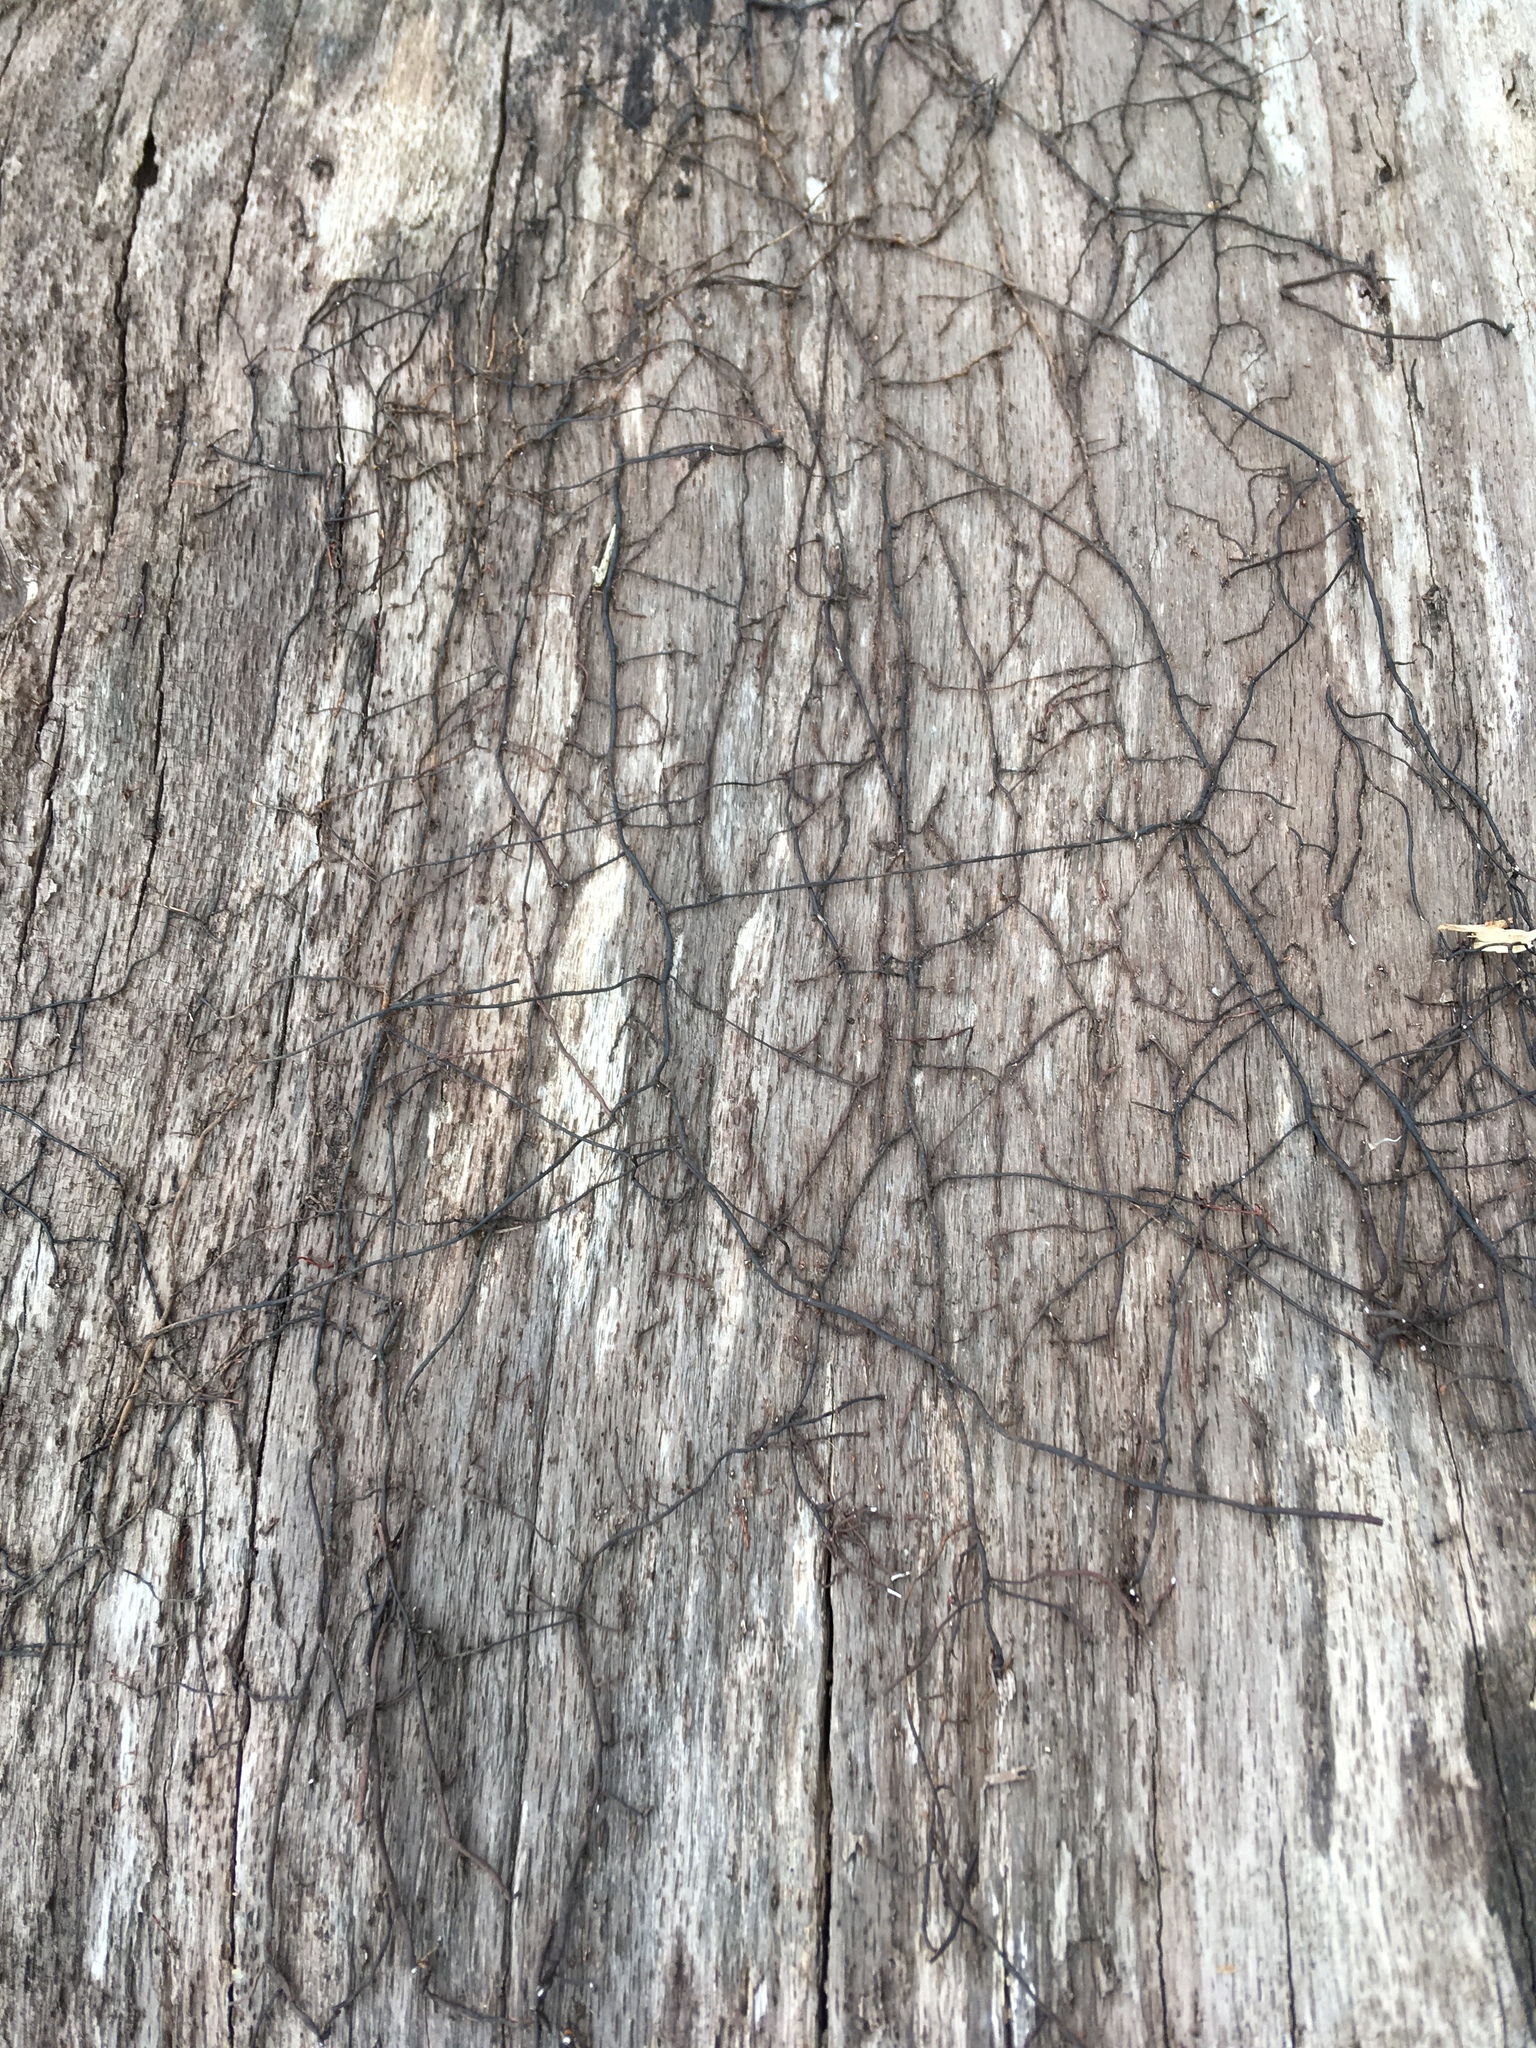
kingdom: Fungi
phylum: Basidiomycota
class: Agaricomycetes
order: Agaricales
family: Physalacriaceae
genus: Armillaria
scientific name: Armillaria
